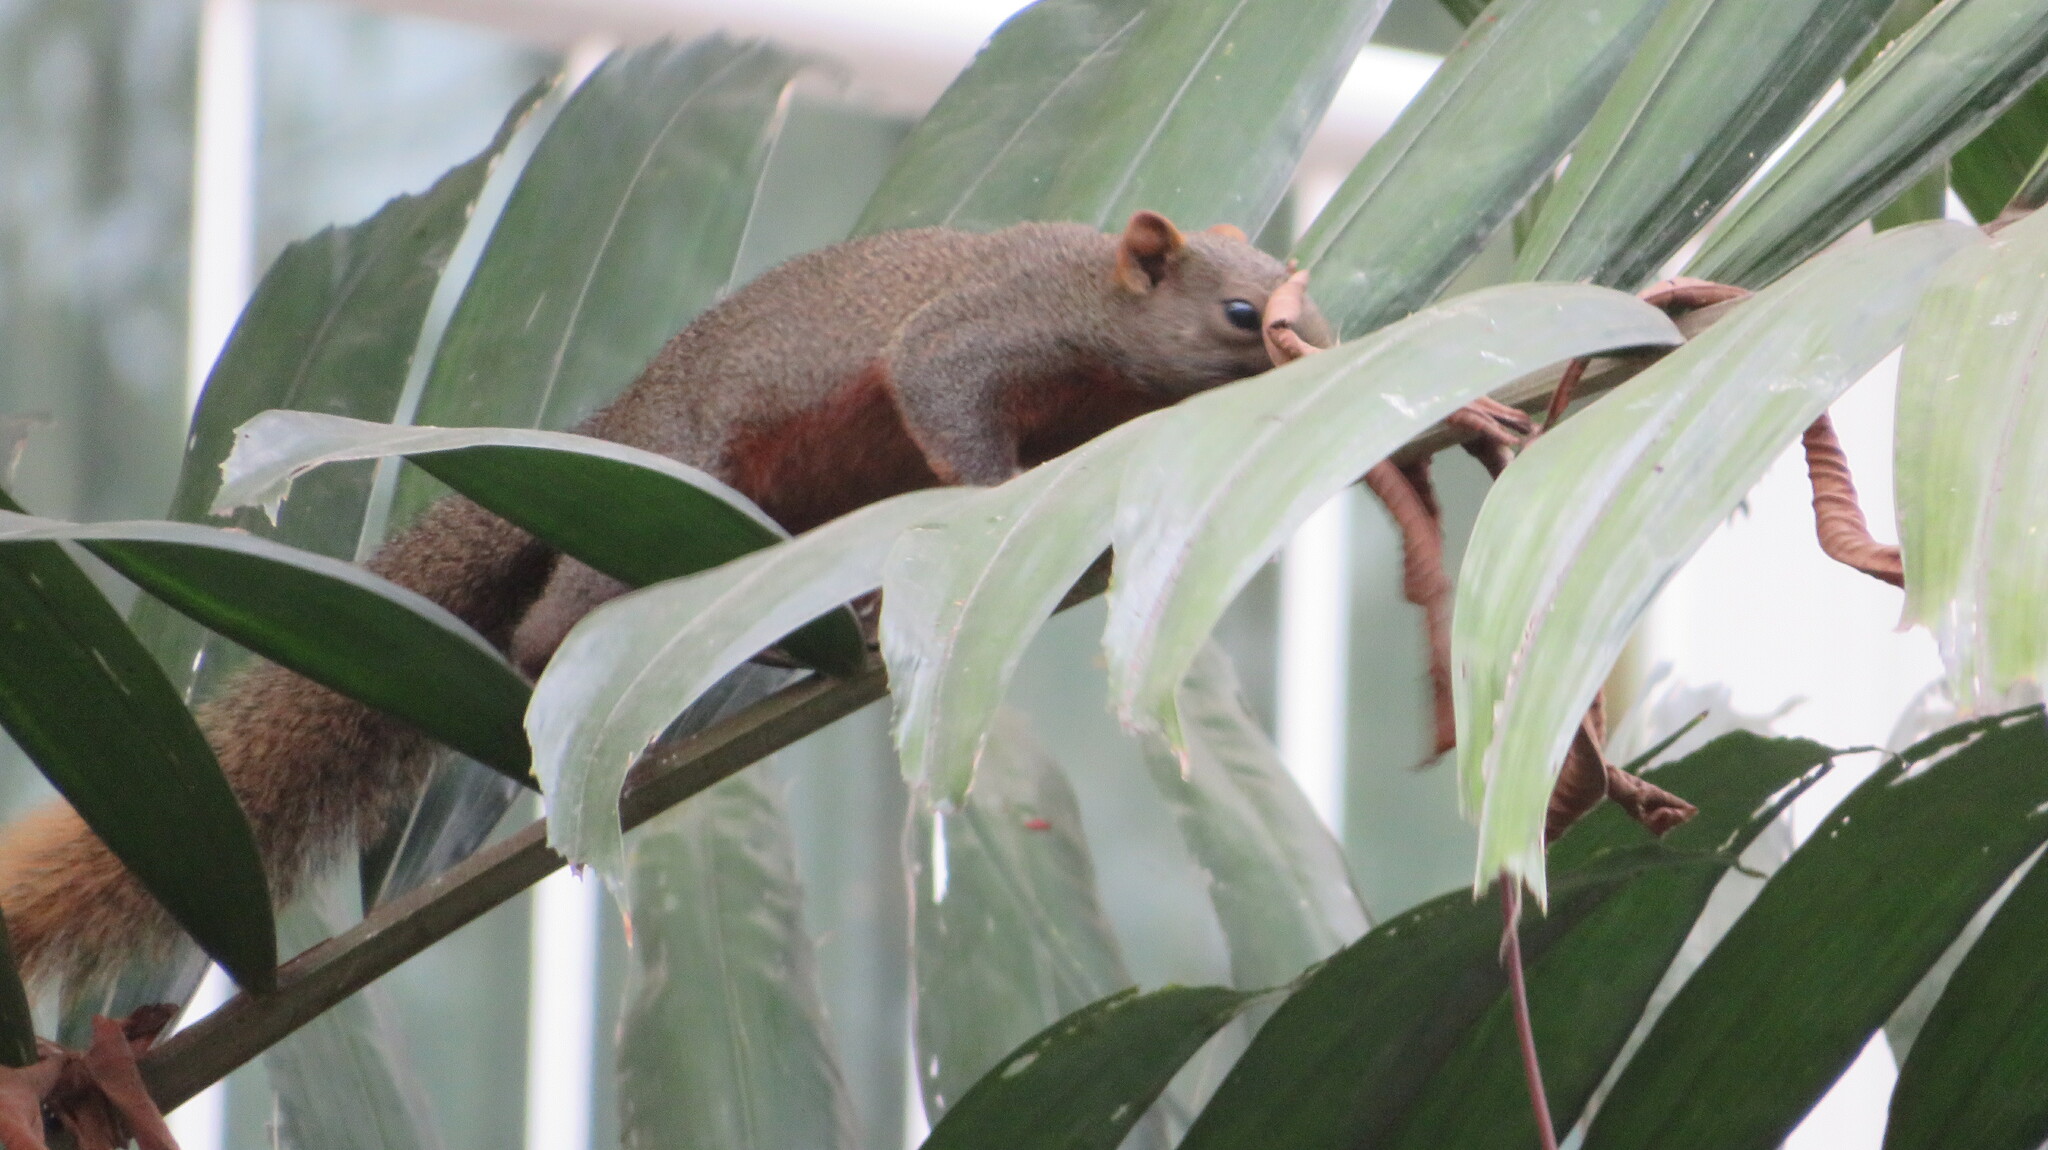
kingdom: Animalia
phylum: Chordata
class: Mammalia
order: Rodentia
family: Sciuridae
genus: Callosciurus
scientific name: Callosciurus erythraeus
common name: Pallas's squirrel
